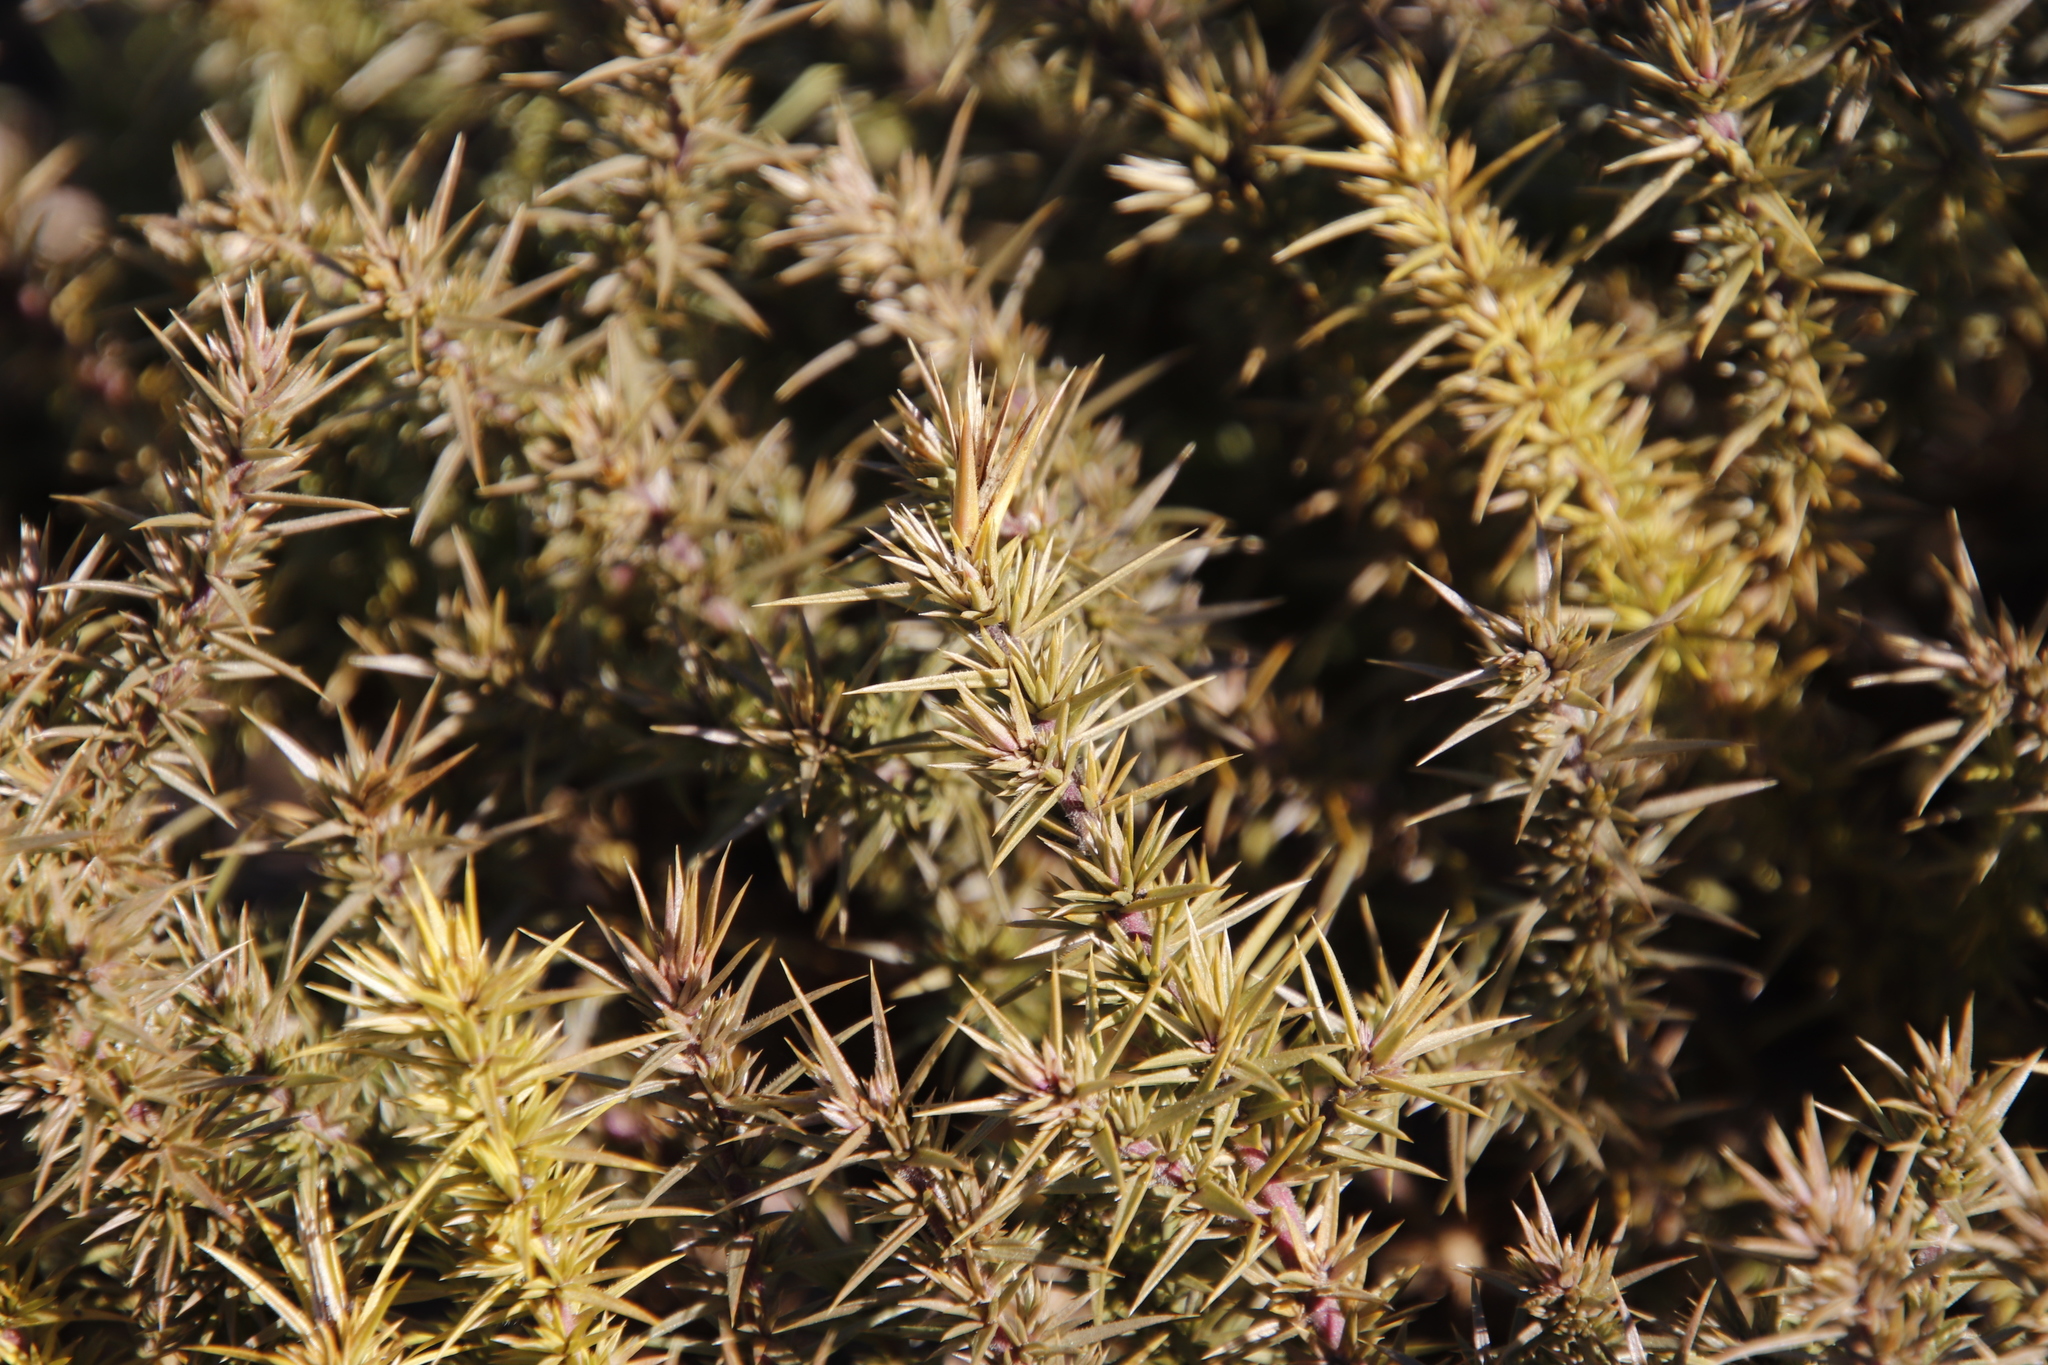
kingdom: Plantae
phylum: Tracheophyta
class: Magnoliopsida
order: Fabales
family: Polygalaceae
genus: Muraltia
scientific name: Muraltia ononidifolia
